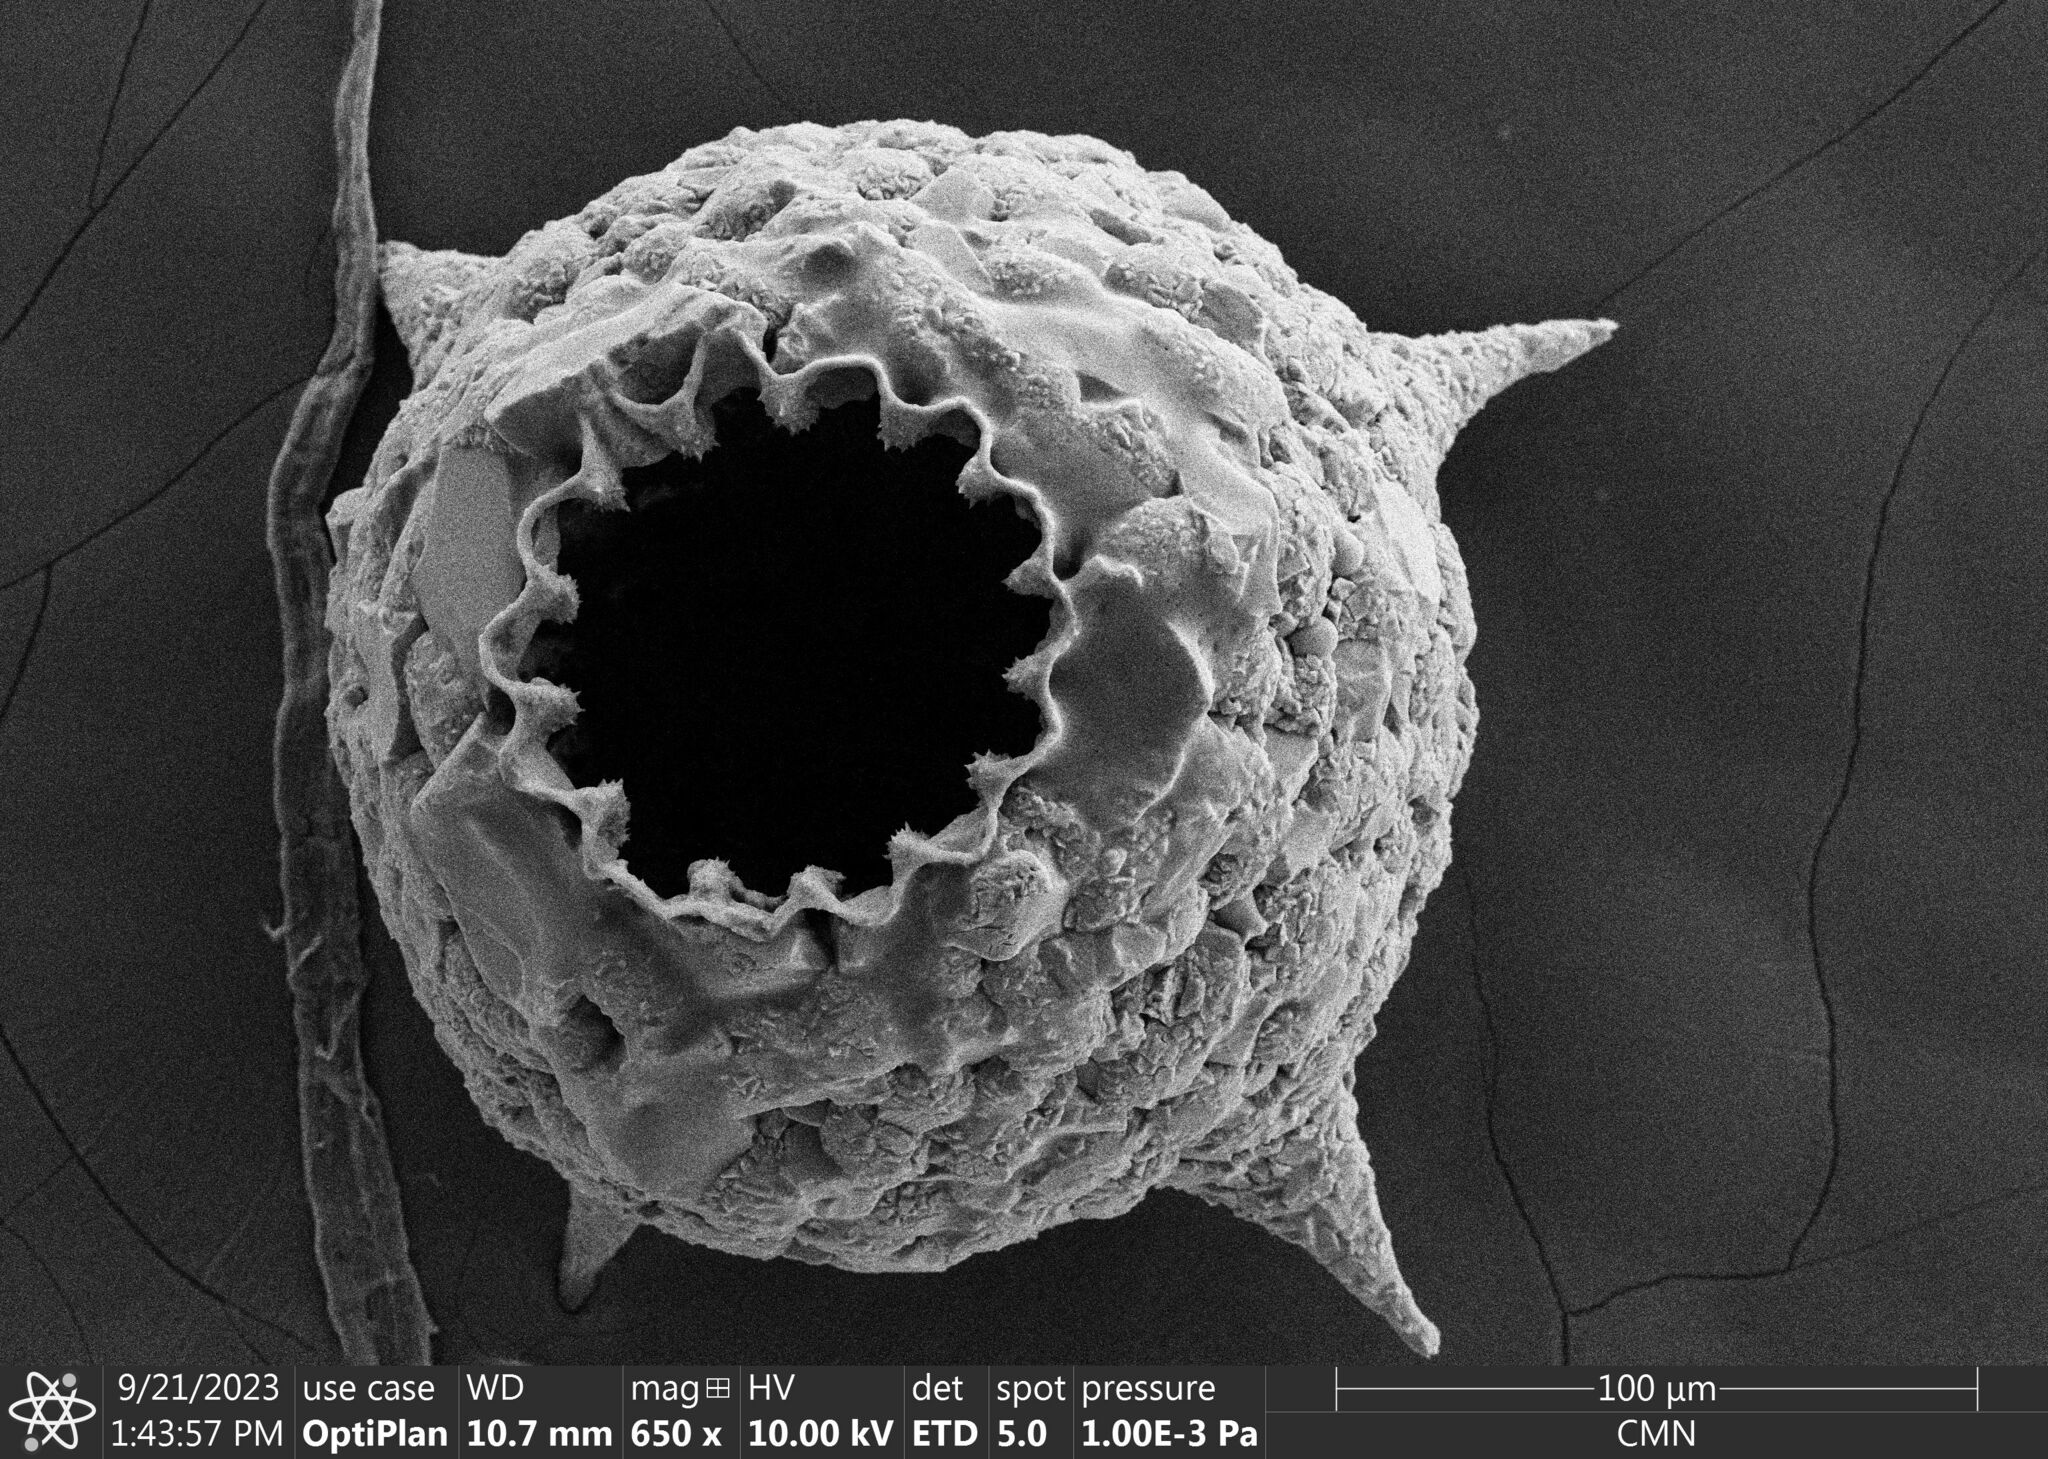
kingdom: Protozoa
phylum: Amoebozoa
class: Lobosa
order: Arcellinida
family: Lesquereusiidae
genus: Netzelia
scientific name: Netzelia
